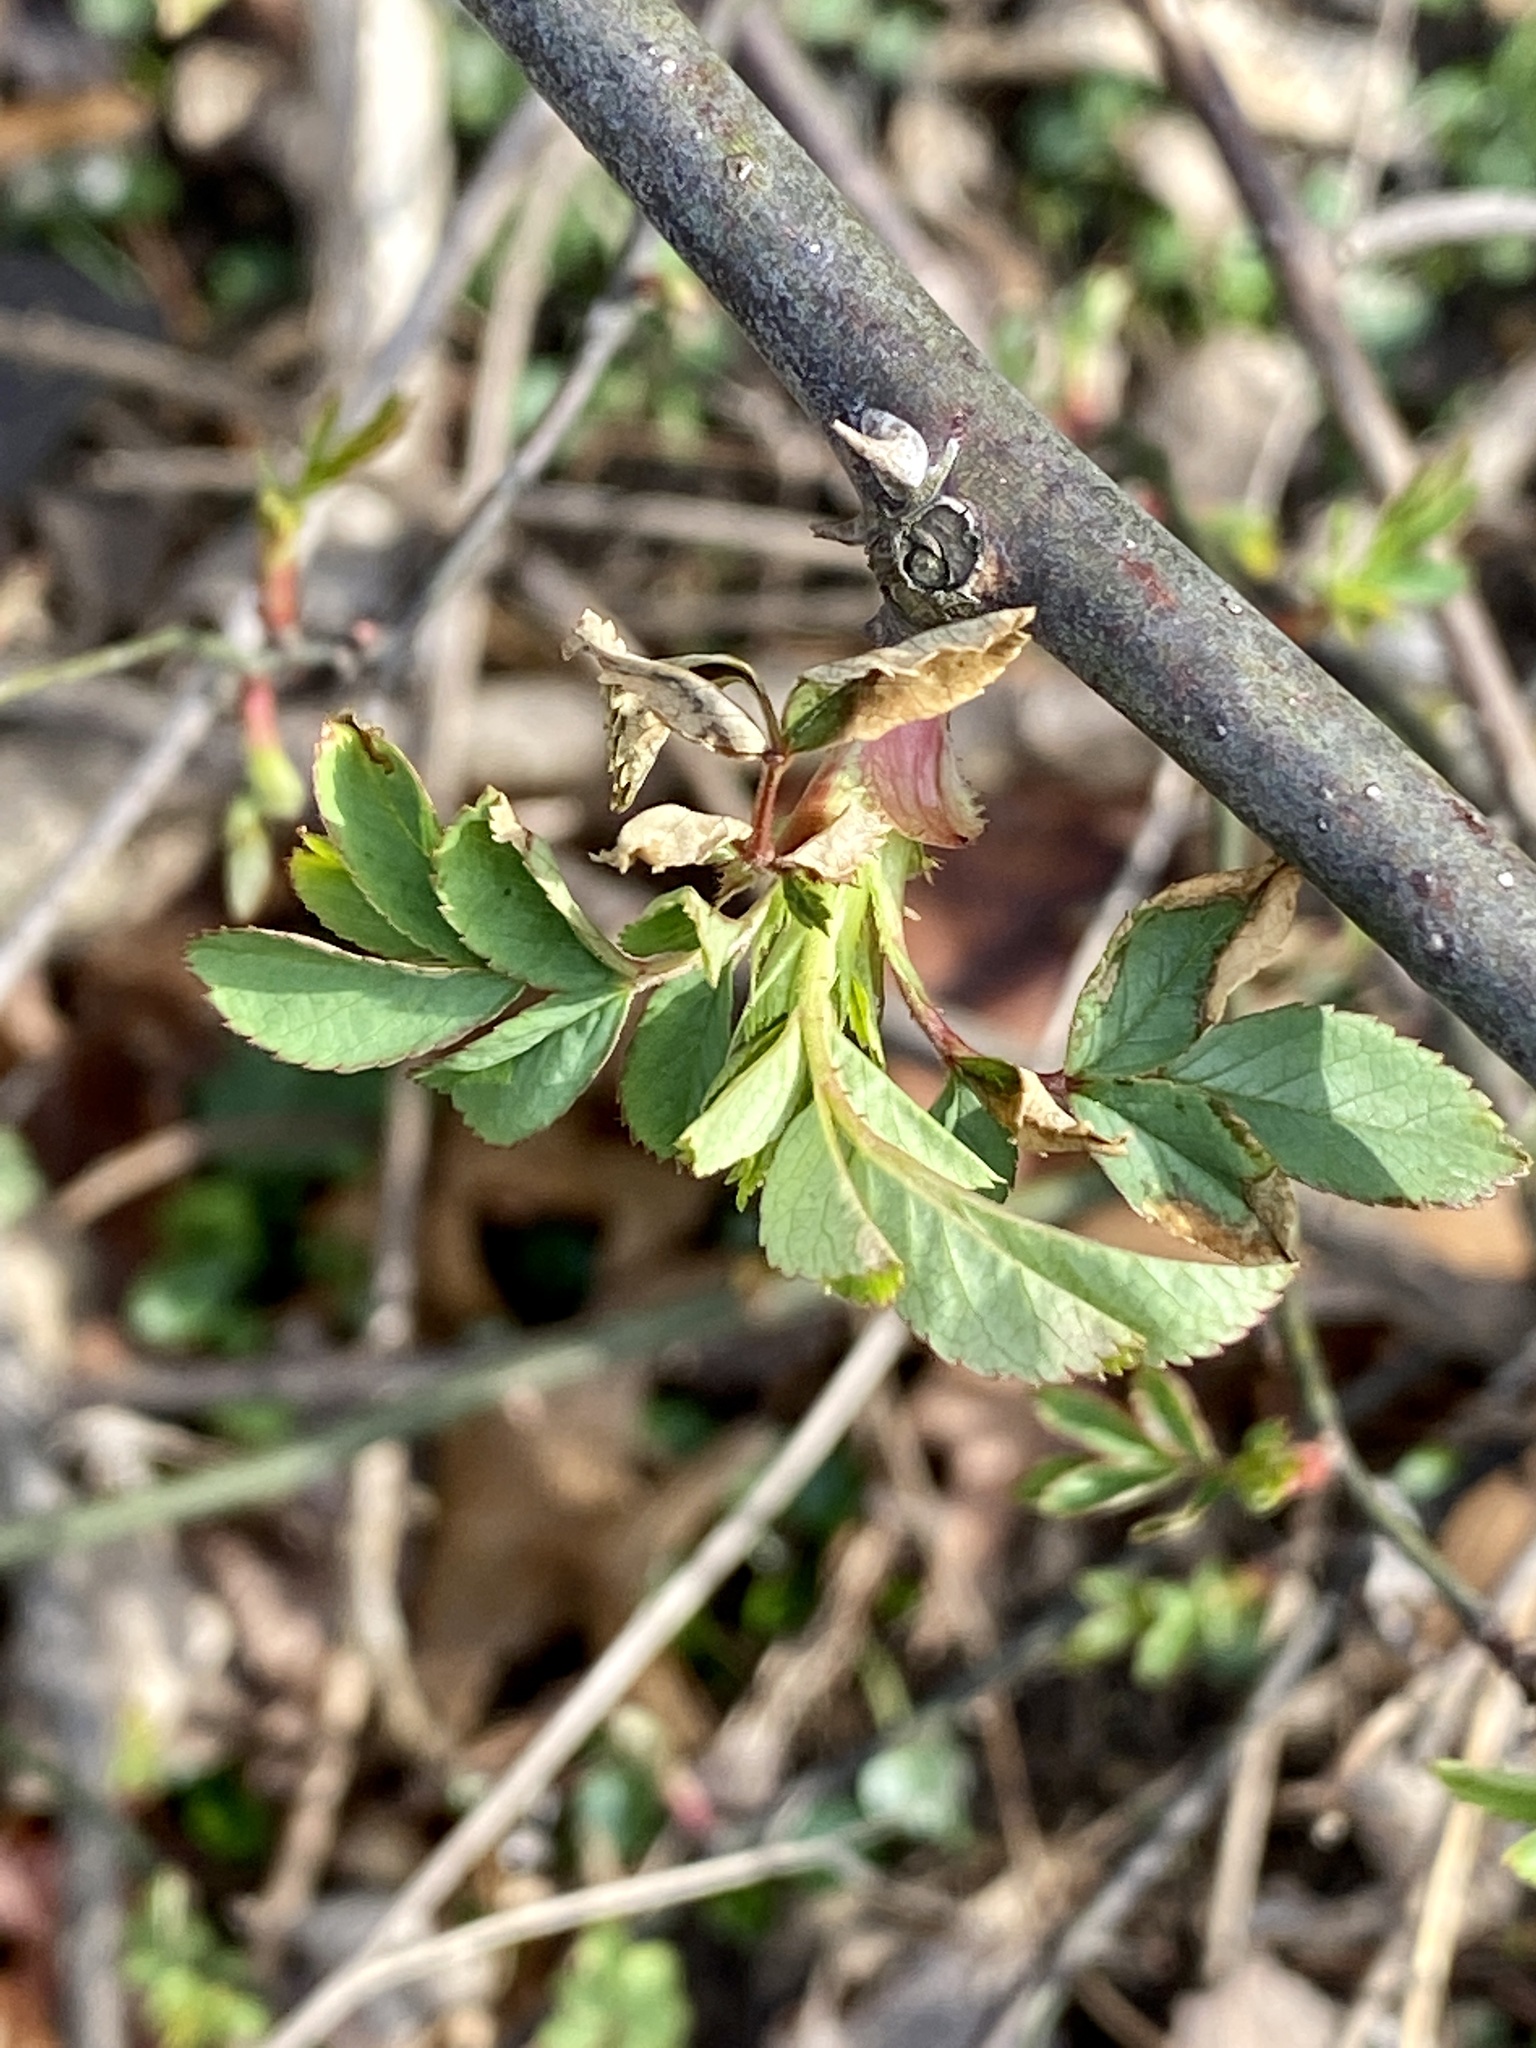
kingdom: Plantae
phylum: Tracheophyta
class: Magnoliopsida
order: Rosales
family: Rosaceae
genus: Rosa
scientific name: Rosa multiflora
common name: Multiflora rose
